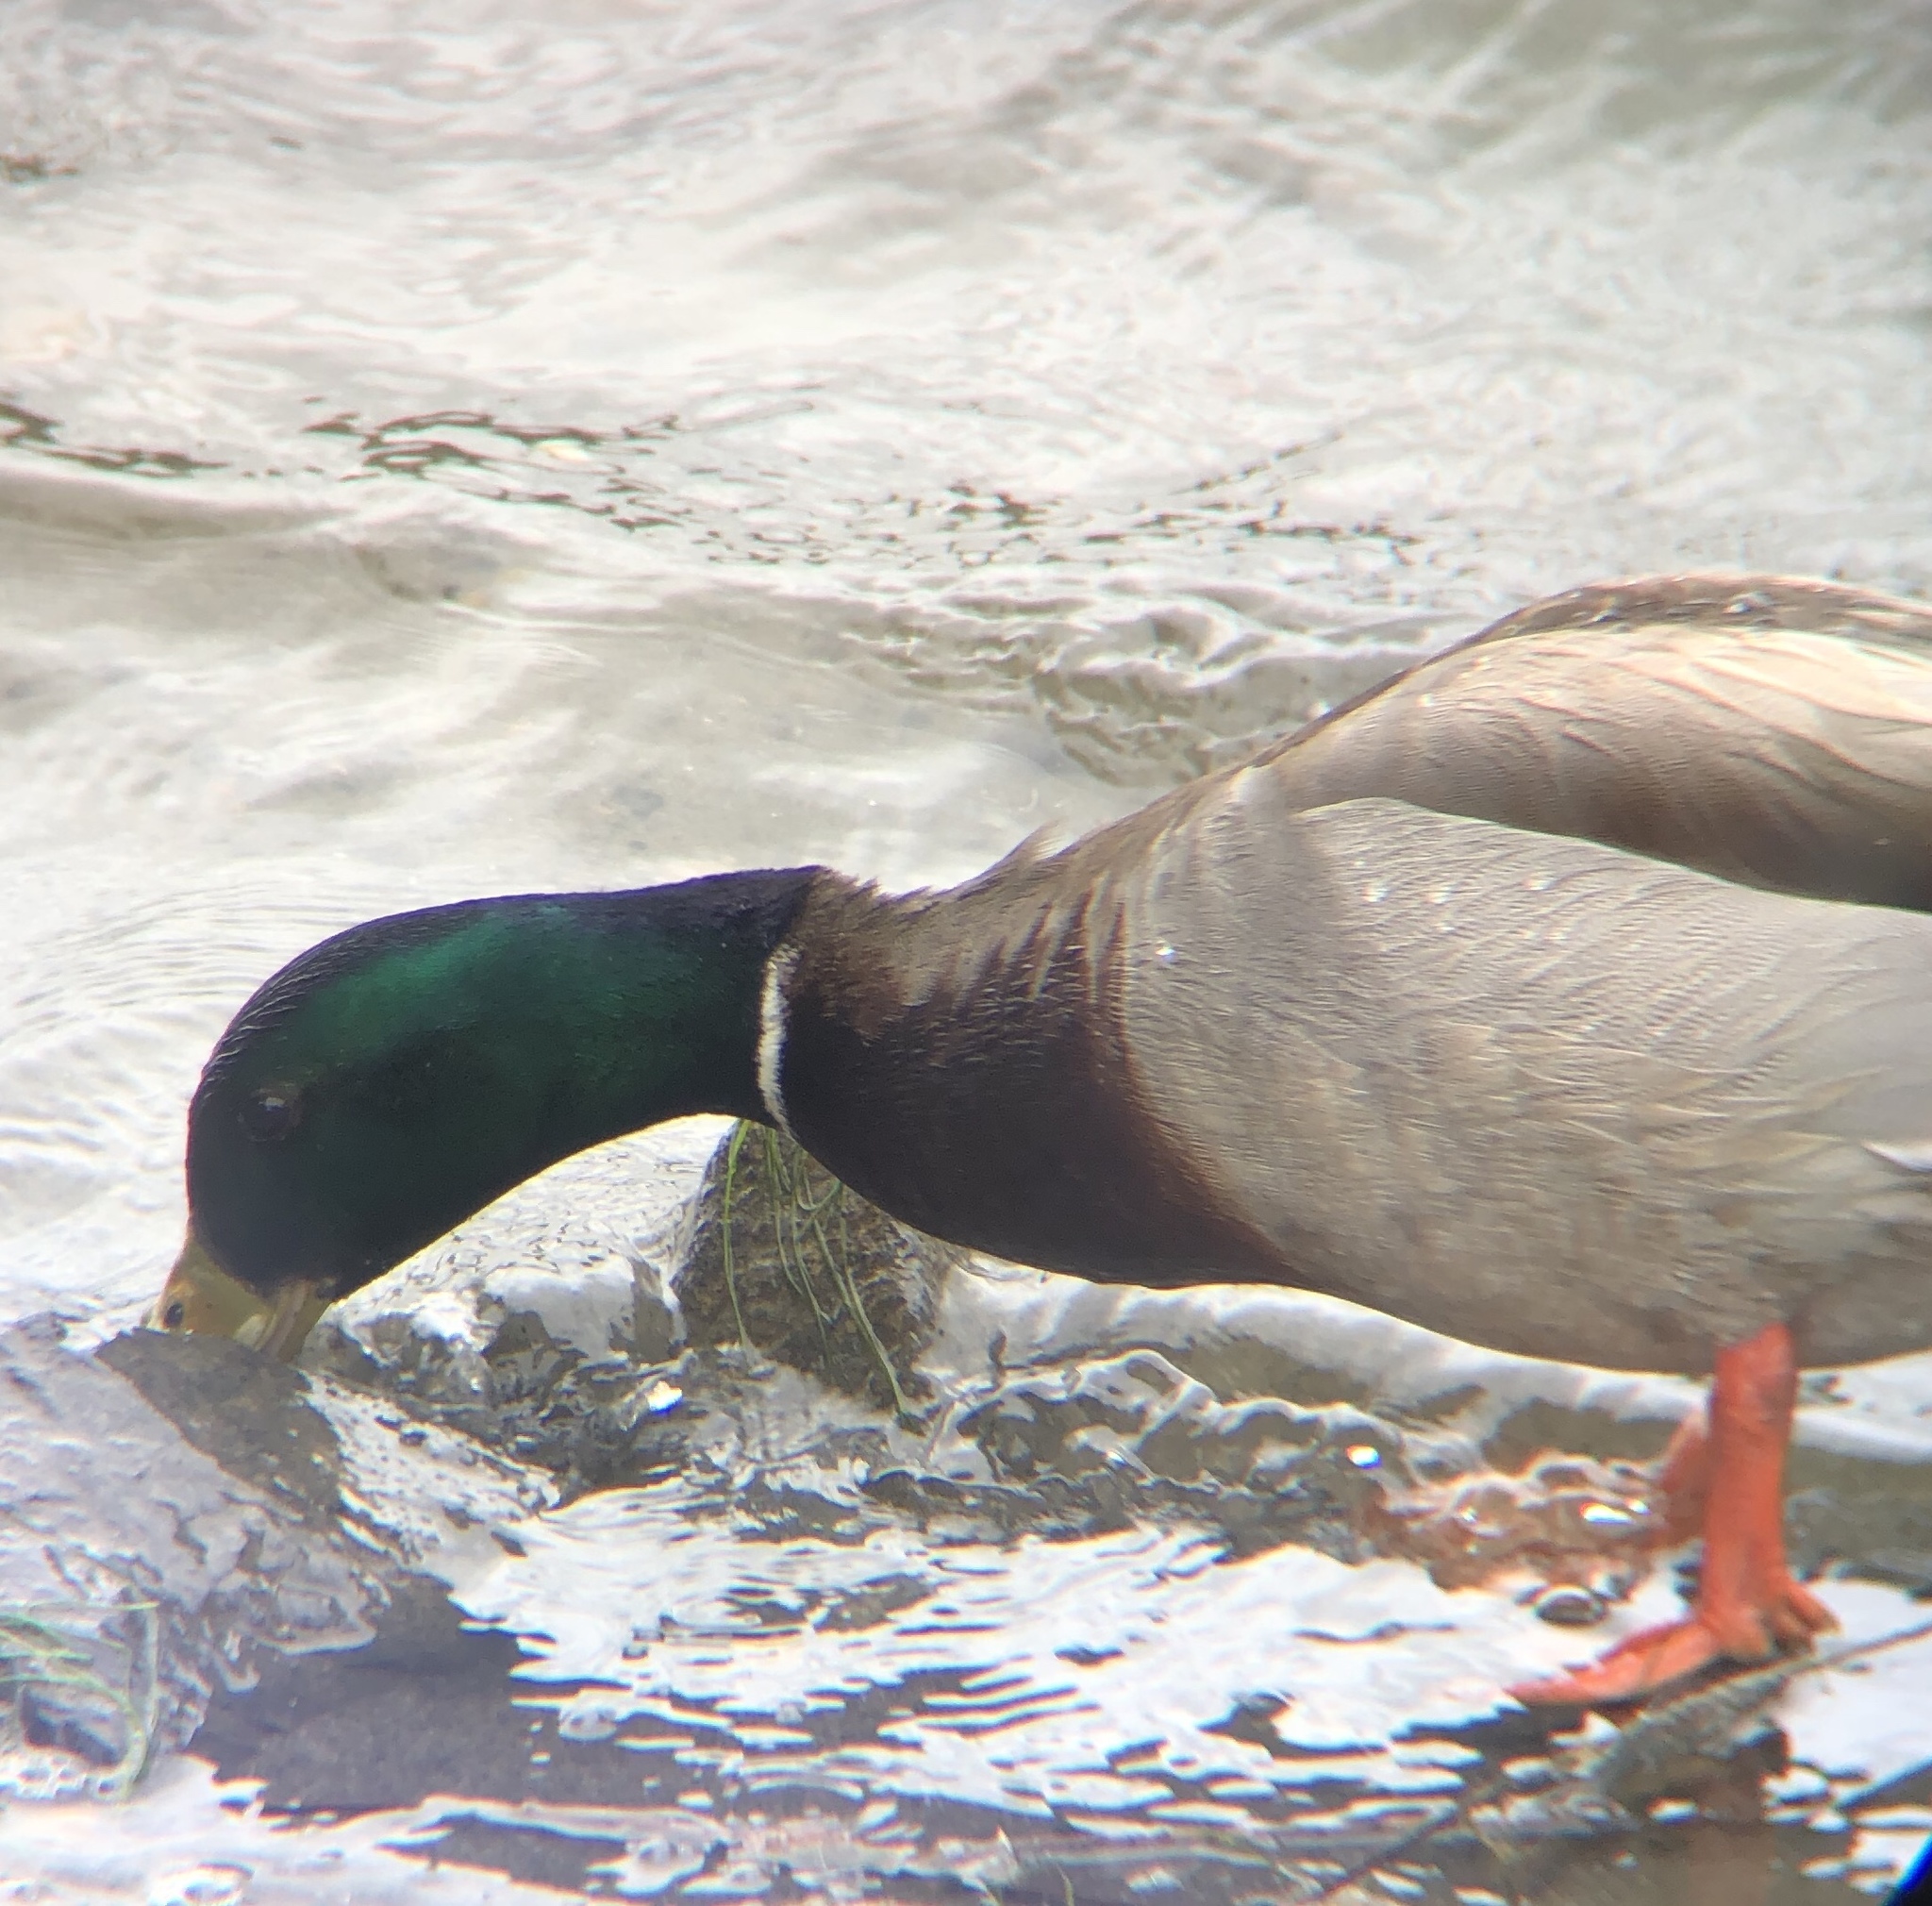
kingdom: Animalia
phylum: Chordata
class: Aves
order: Anseriformes
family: Anatidae
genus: Anas
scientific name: Anas platyrhynchos
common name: Mallard
